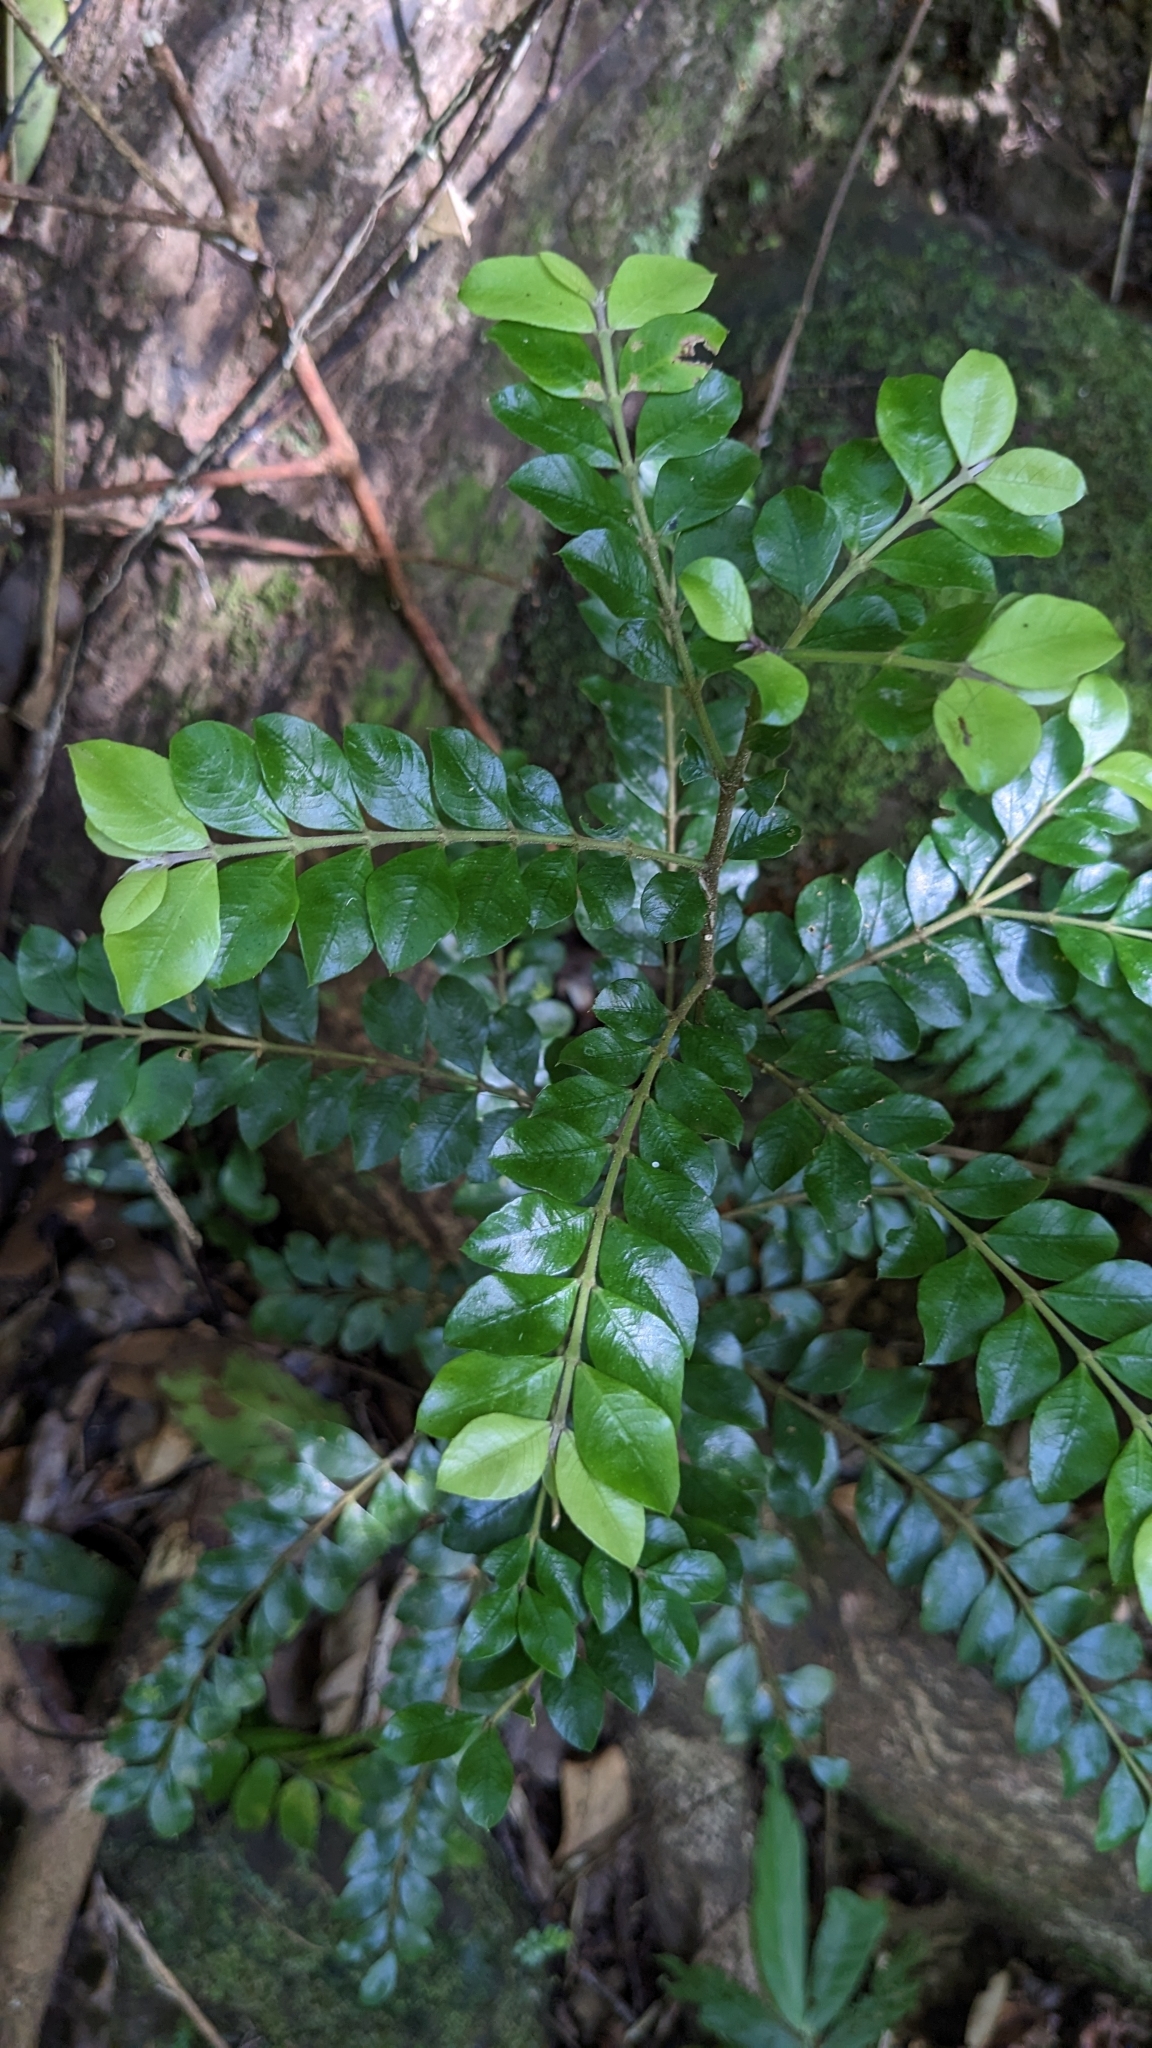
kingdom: Plantae
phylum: Tracheophyta
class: Magnoliopsida
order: Gentianales
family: Rubiaceae
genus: Lasianthus
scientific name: Lasianthus biflorus
